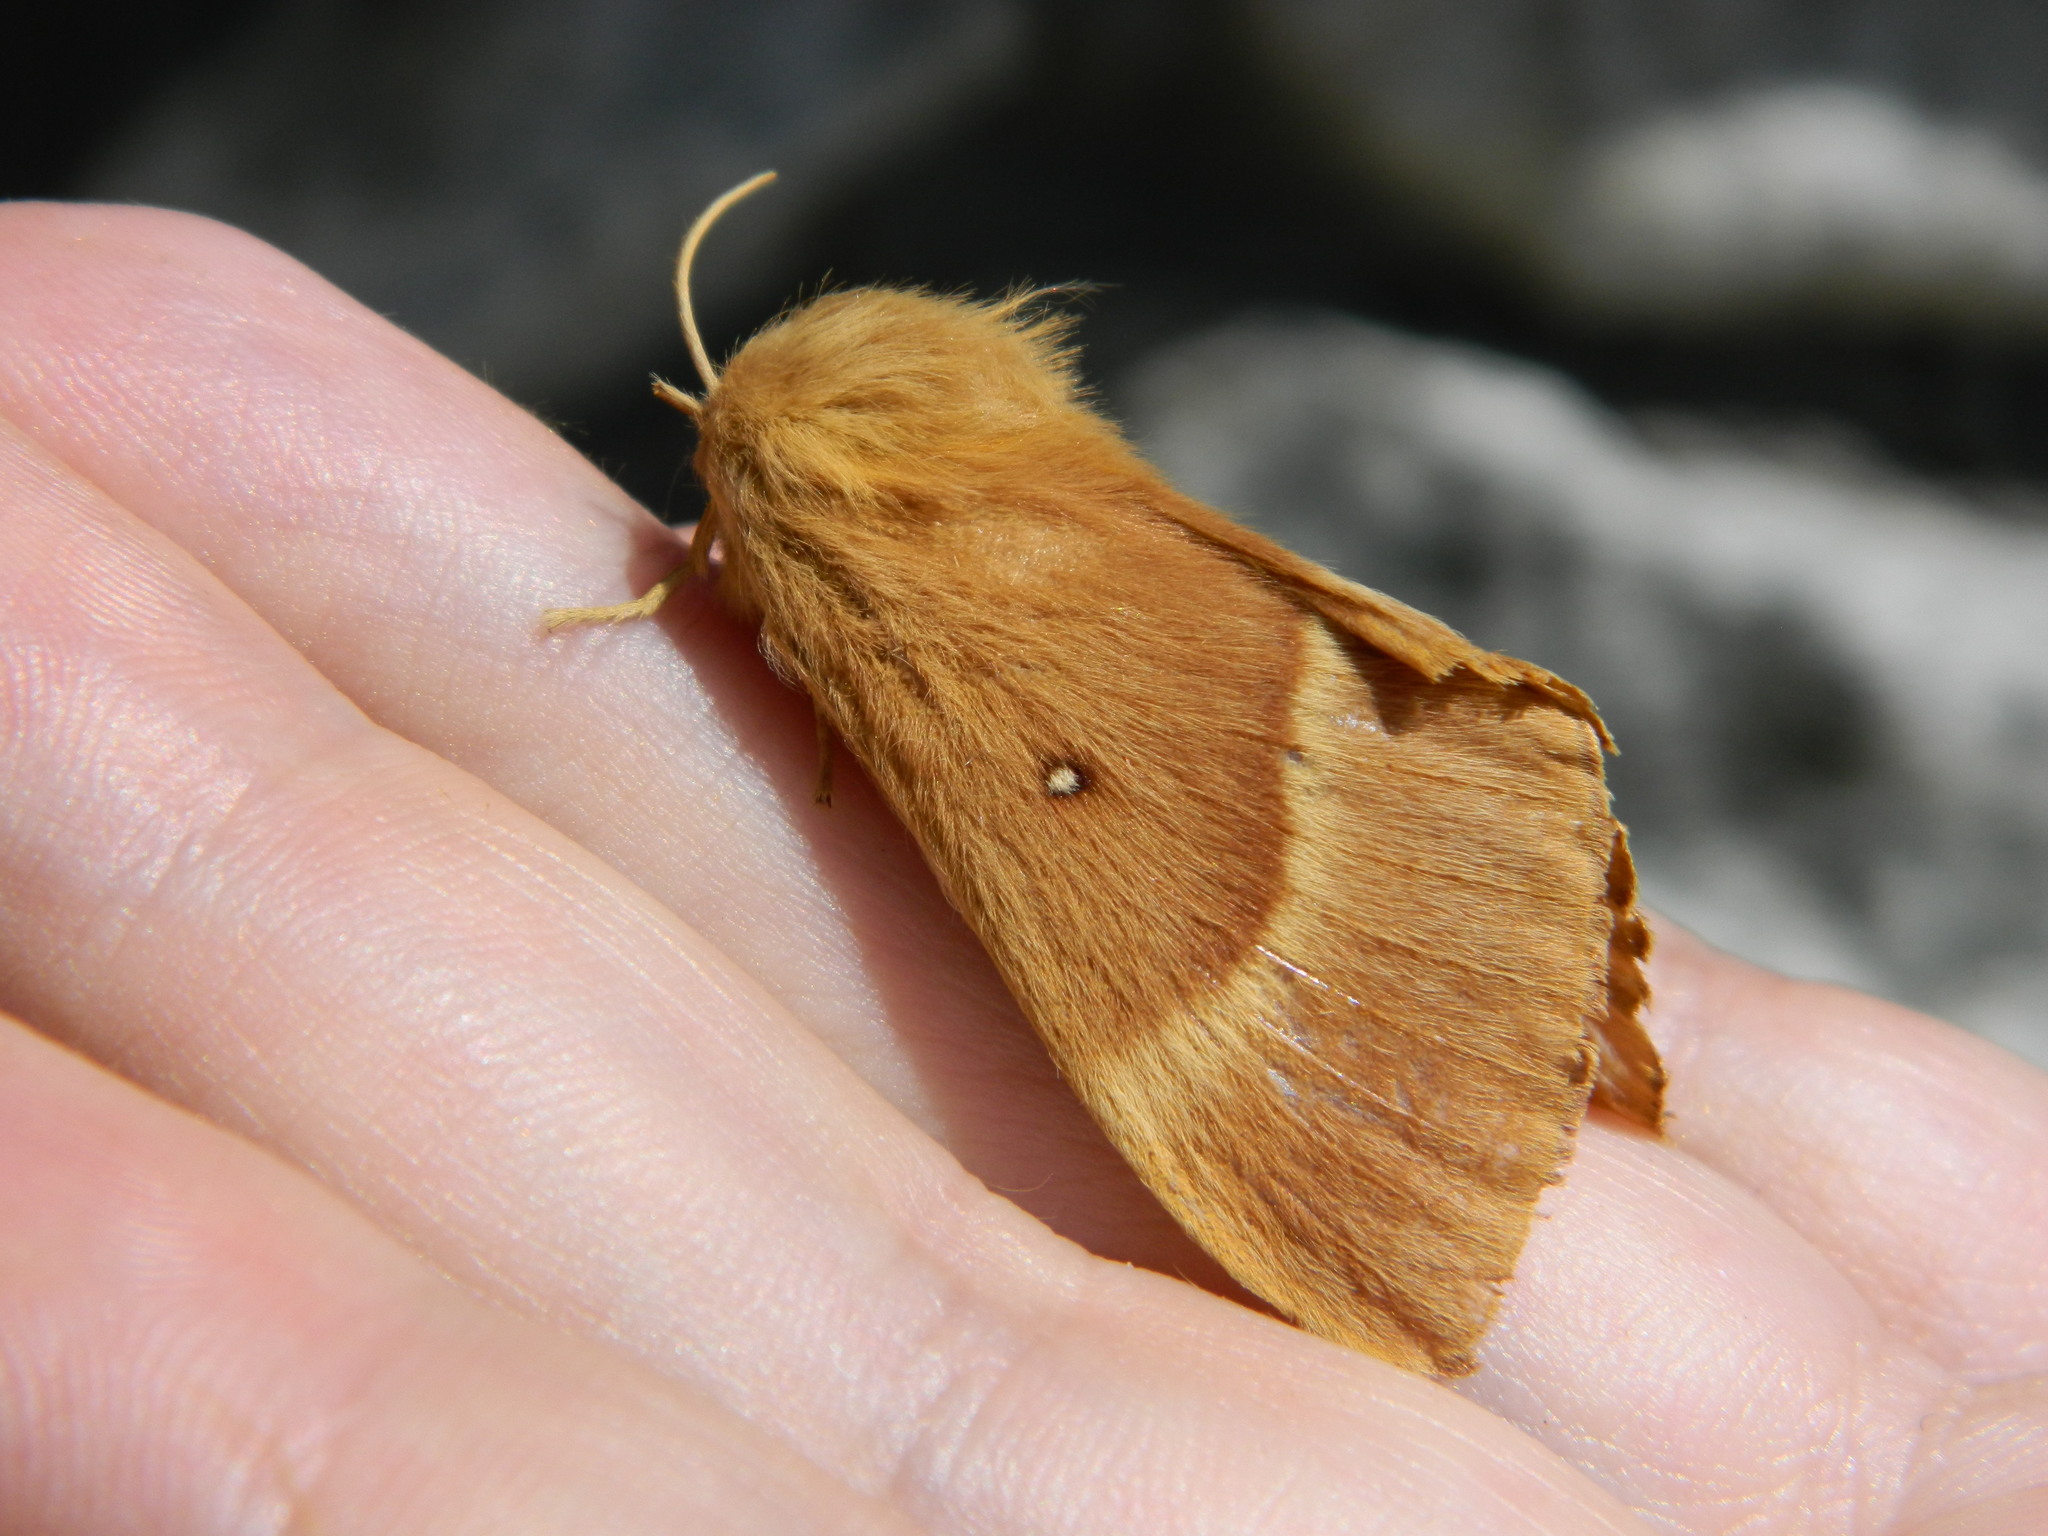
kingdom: Animalia
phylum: Arthropoda
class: Insecta
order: Lepidoptera
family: Lasiocampidae
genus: Lasiocampa
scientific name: Lasiocampa quercus
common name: Oak eggar
